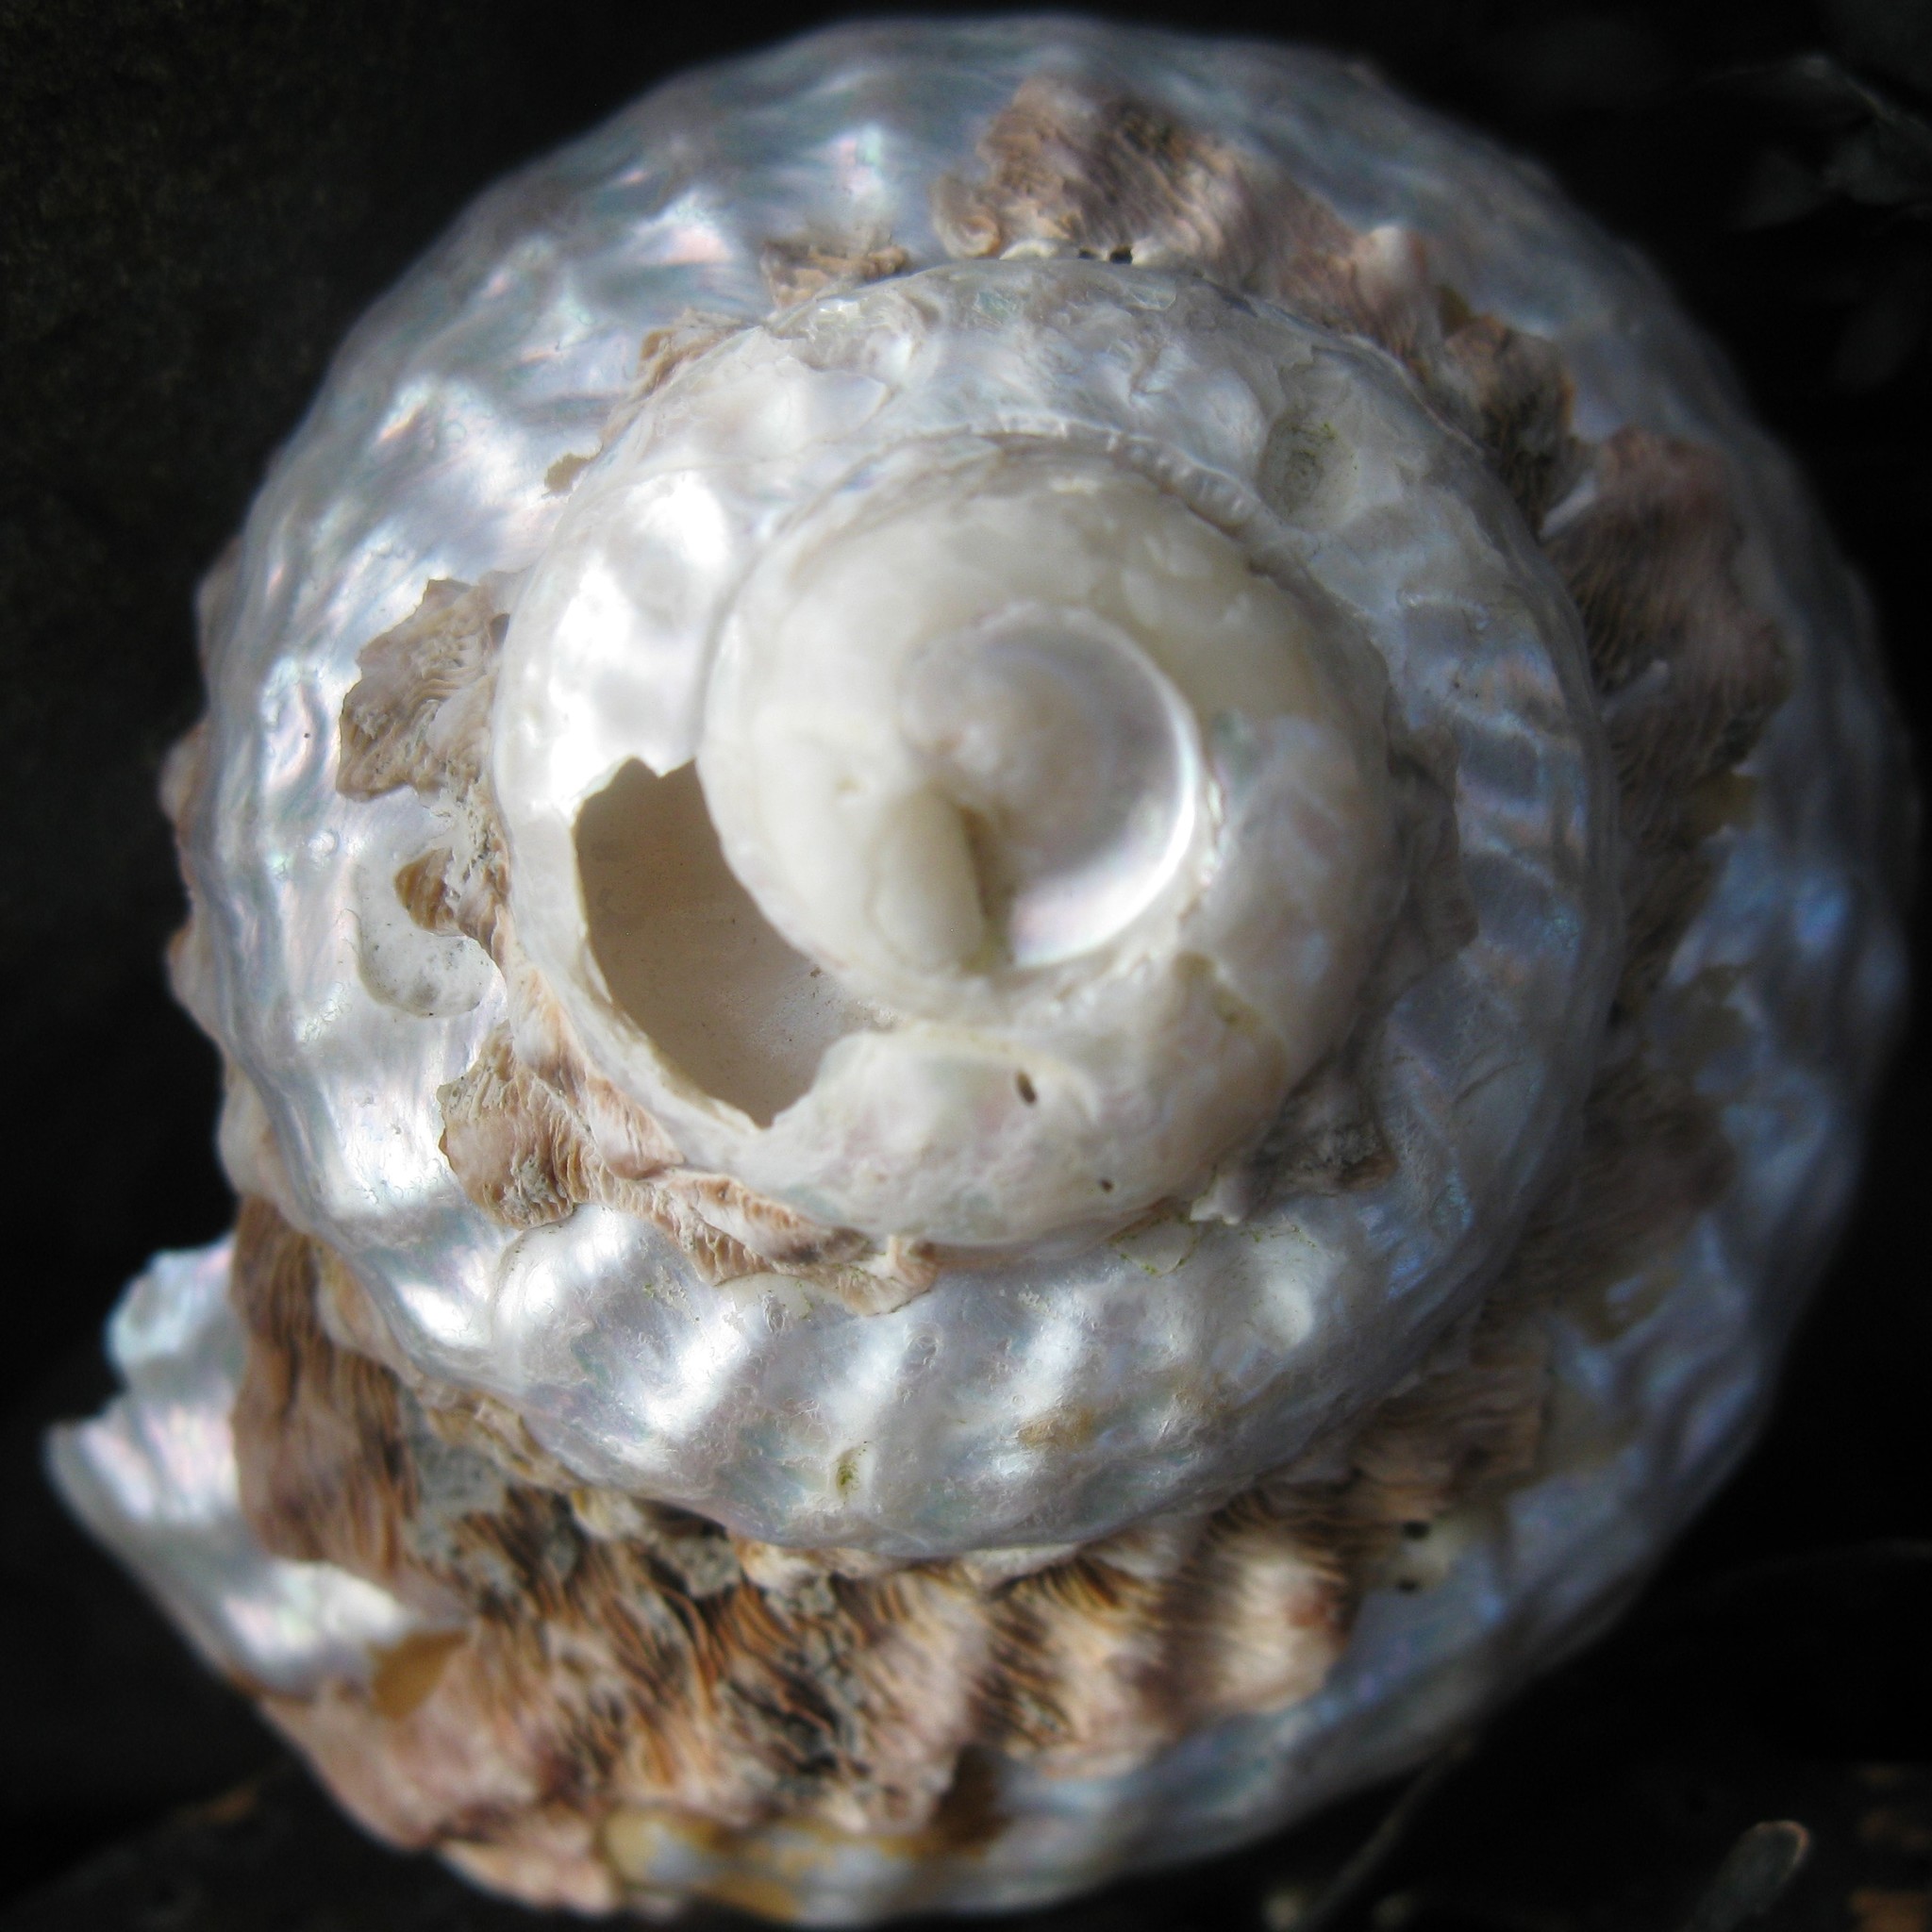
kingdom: Animalia
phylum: Mollusca
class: Gastropoda
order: Trochida
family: Turbinidae
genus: Cookia
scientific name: Cookia sulcata
